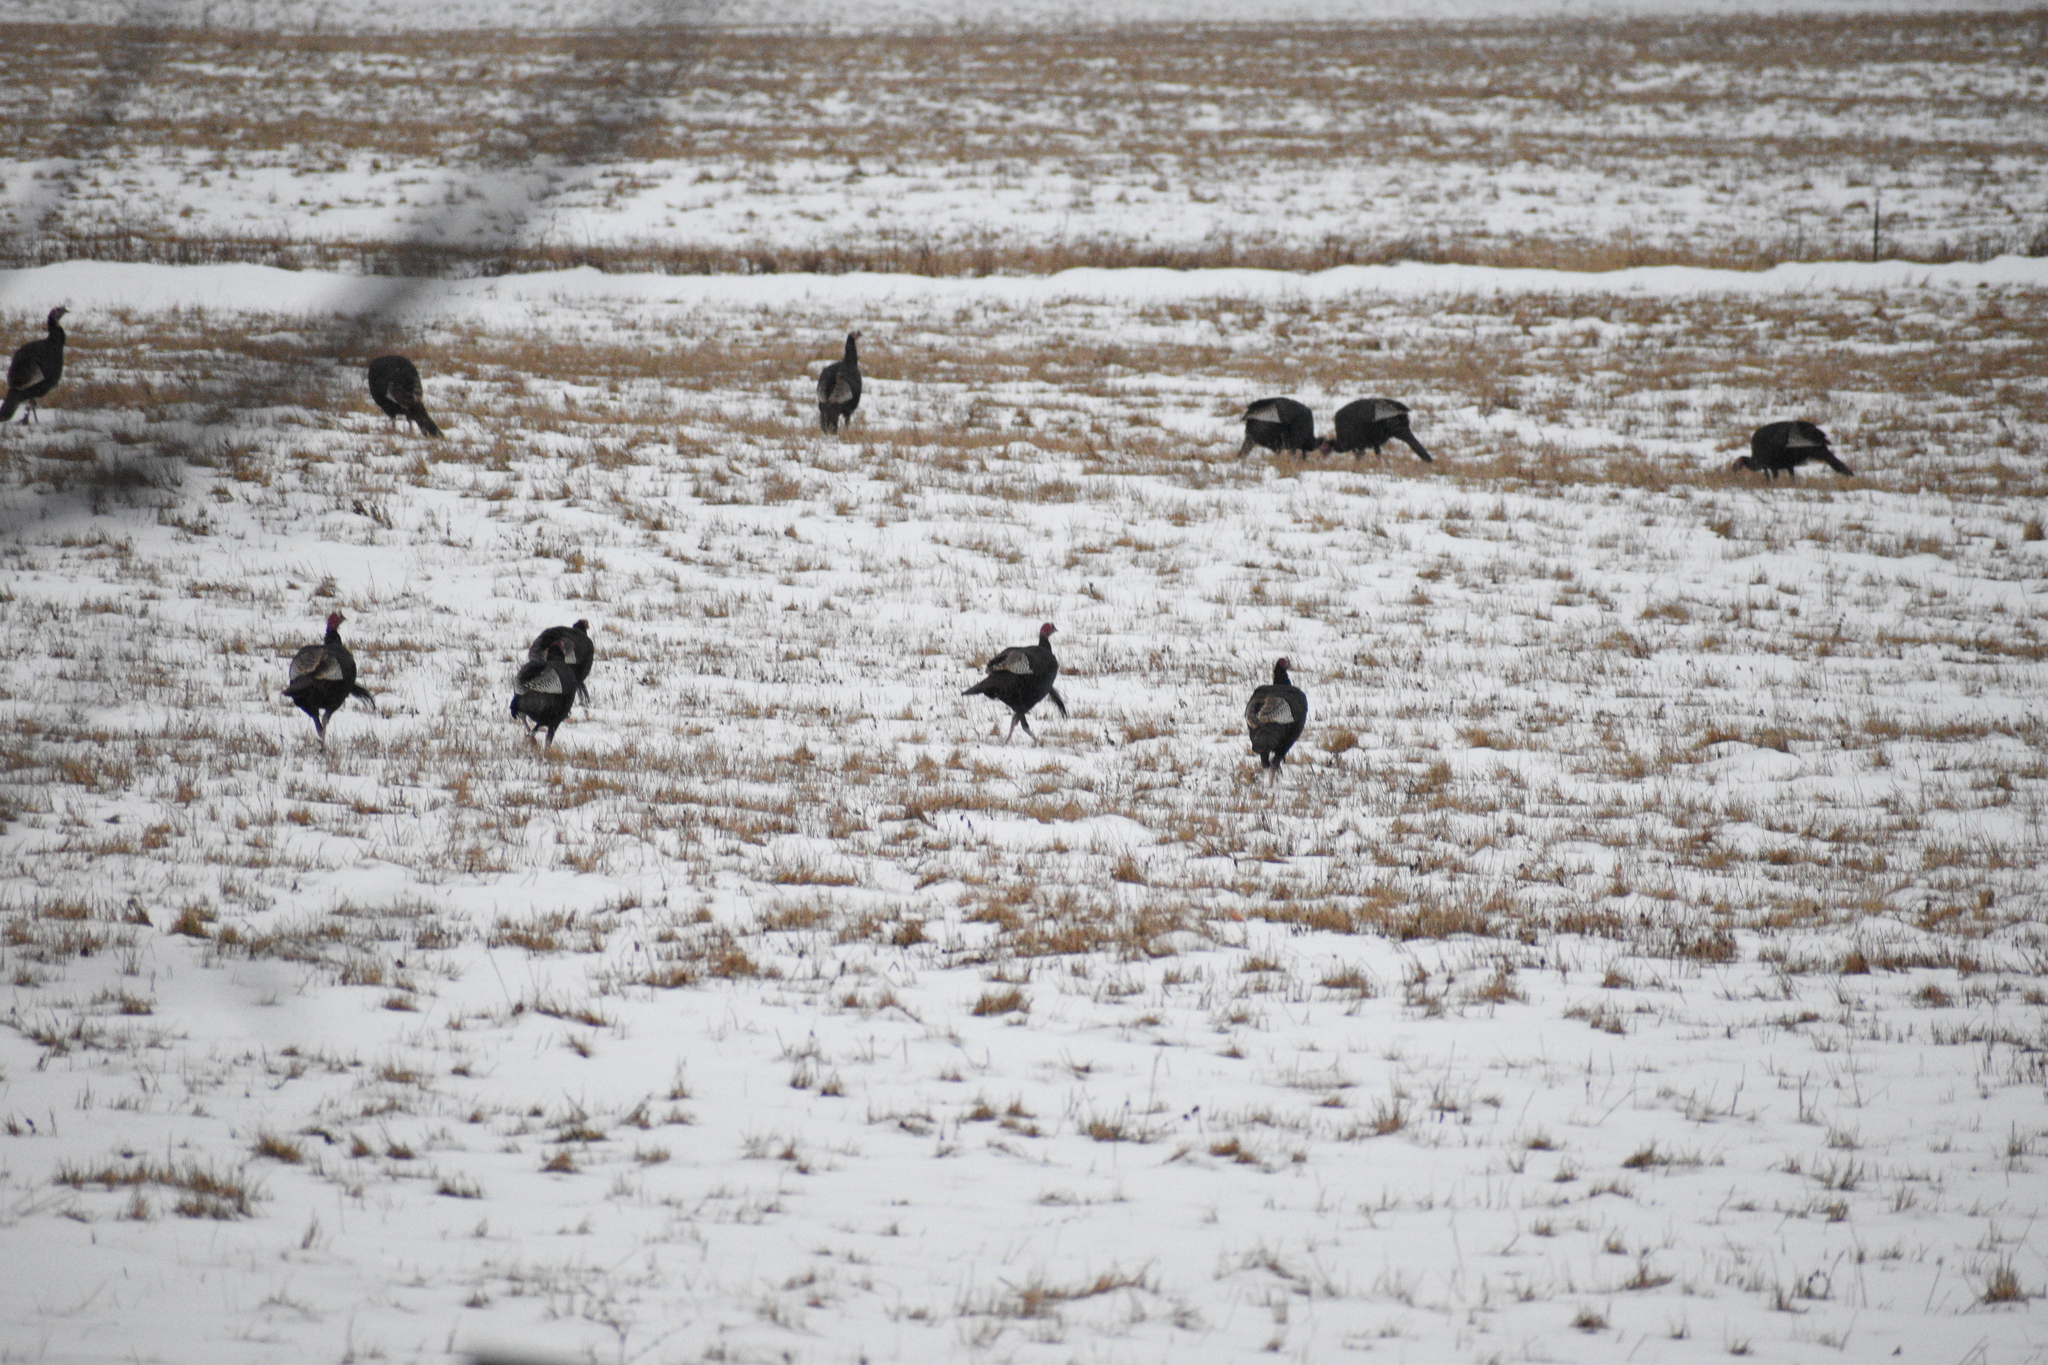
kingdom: Animalia
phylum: Chordata
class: Aves
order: Galliformes
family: Phasianidae
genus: Meleagris
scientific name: Meleagris gallopavo
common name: Wild turkey
